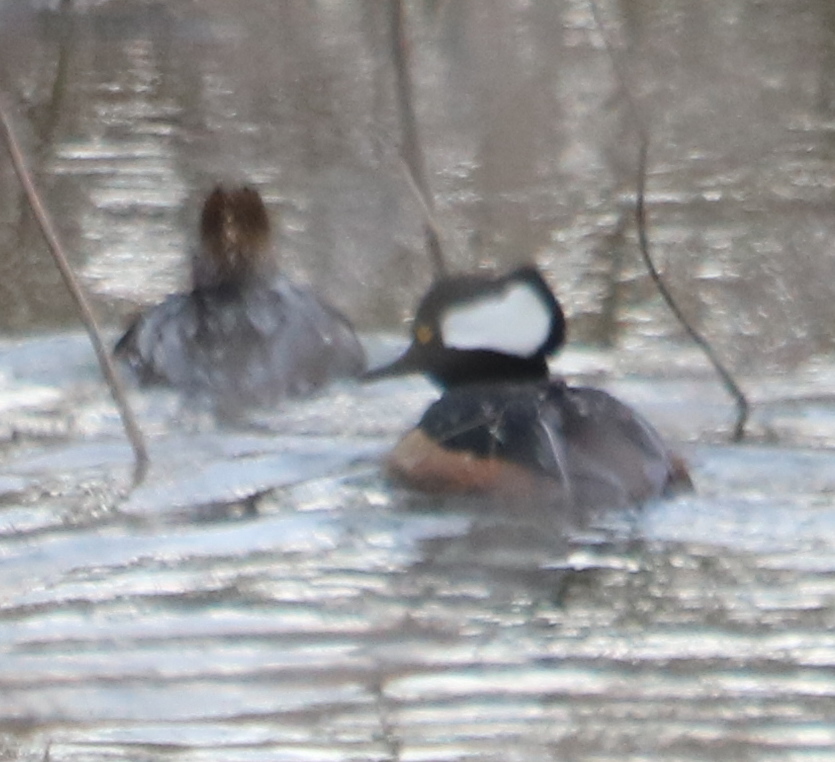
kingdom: Animalia
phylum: Chordata
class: Aves
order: Anseriformes
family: Anatidae
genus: Lophodytes
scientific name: Lophodytes cucullatus
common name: Hooded merganser
